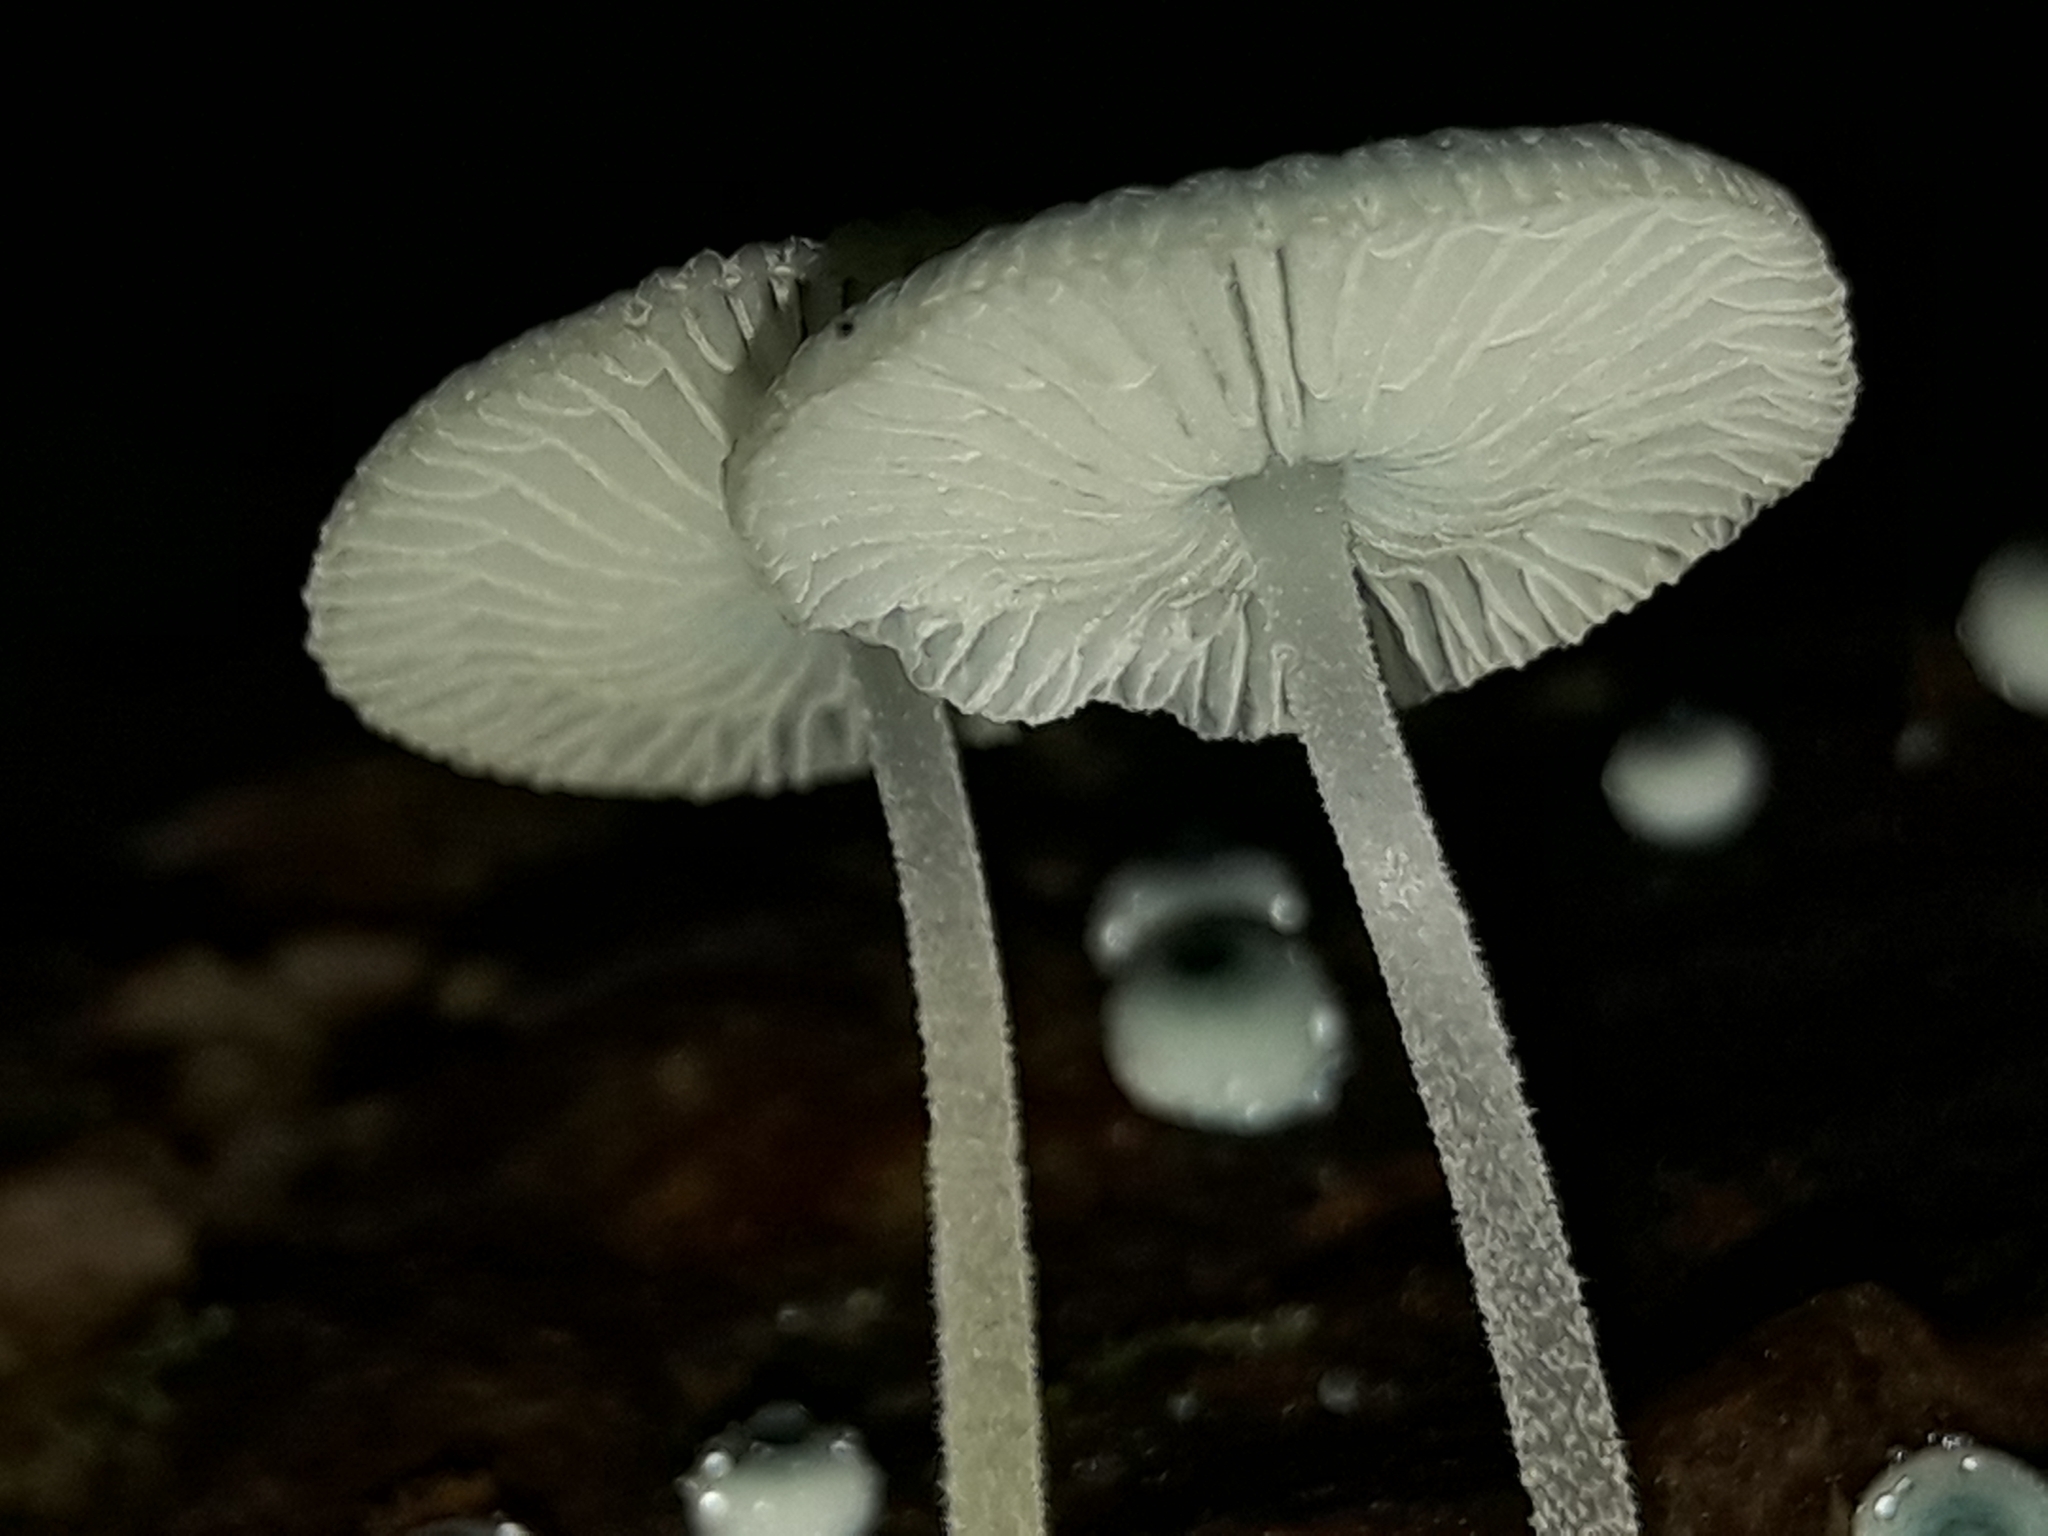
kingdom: Fungi
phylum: Basidiomycota
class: Agaricomycetes
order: Agaricales
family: Mycenaceae
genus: Mycena
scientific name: Mycena interrupta
